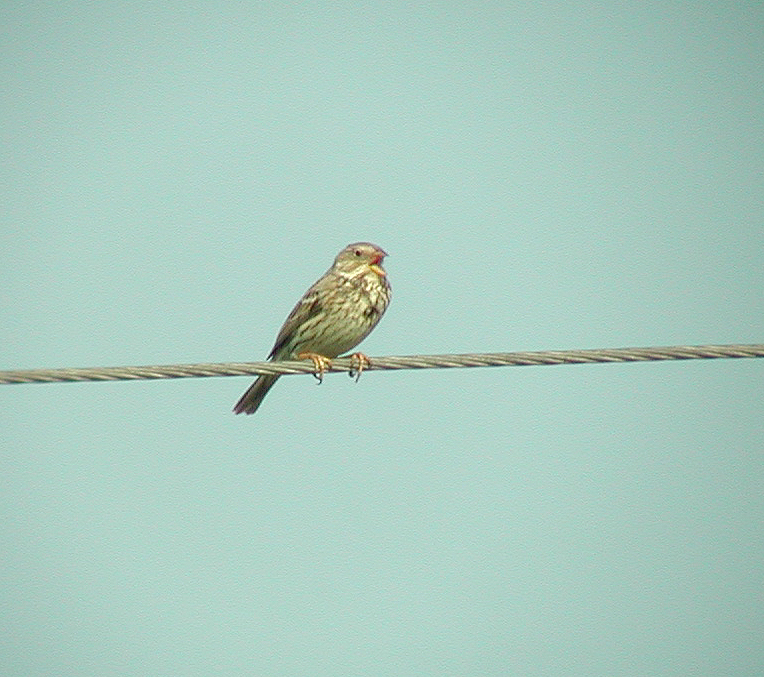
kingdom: Animalia
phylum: Chordata
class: Aves
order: Passeriformes
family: Emberizidae
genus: Emberiza
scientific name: Emberiza calandra
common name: Corn bunting
